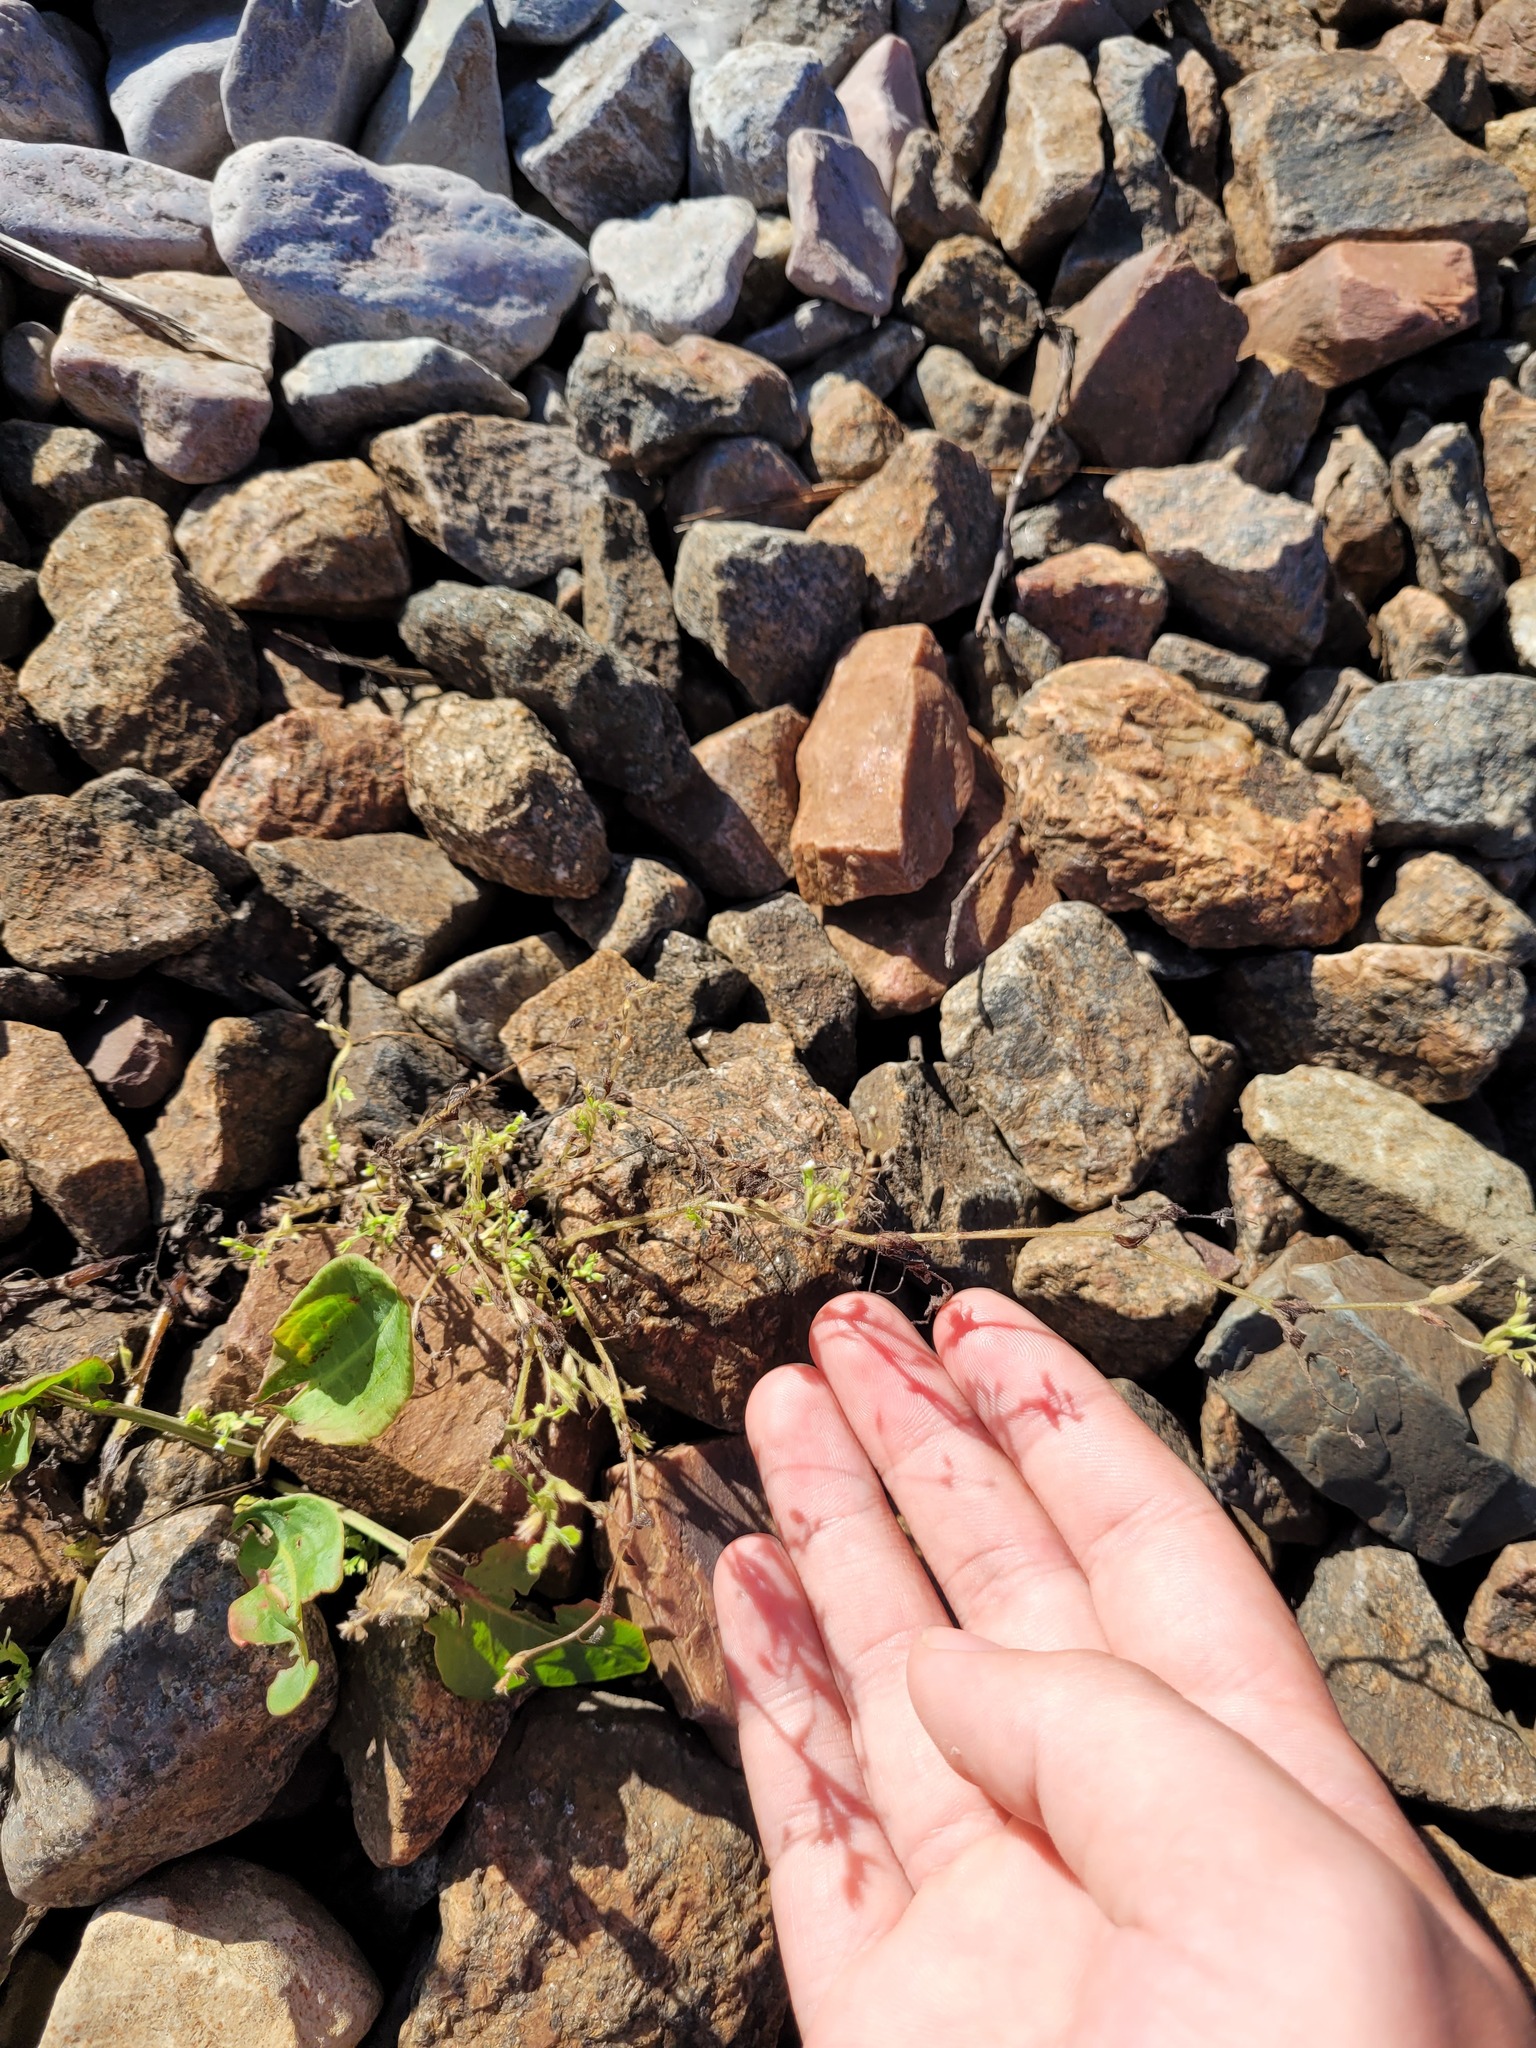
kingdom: Plantae
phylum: Tracheophyta
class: Magnoliopsida
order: Boraginales
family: Boraginaceae
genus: Myosotis
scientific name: Myosotis sparsiflora
